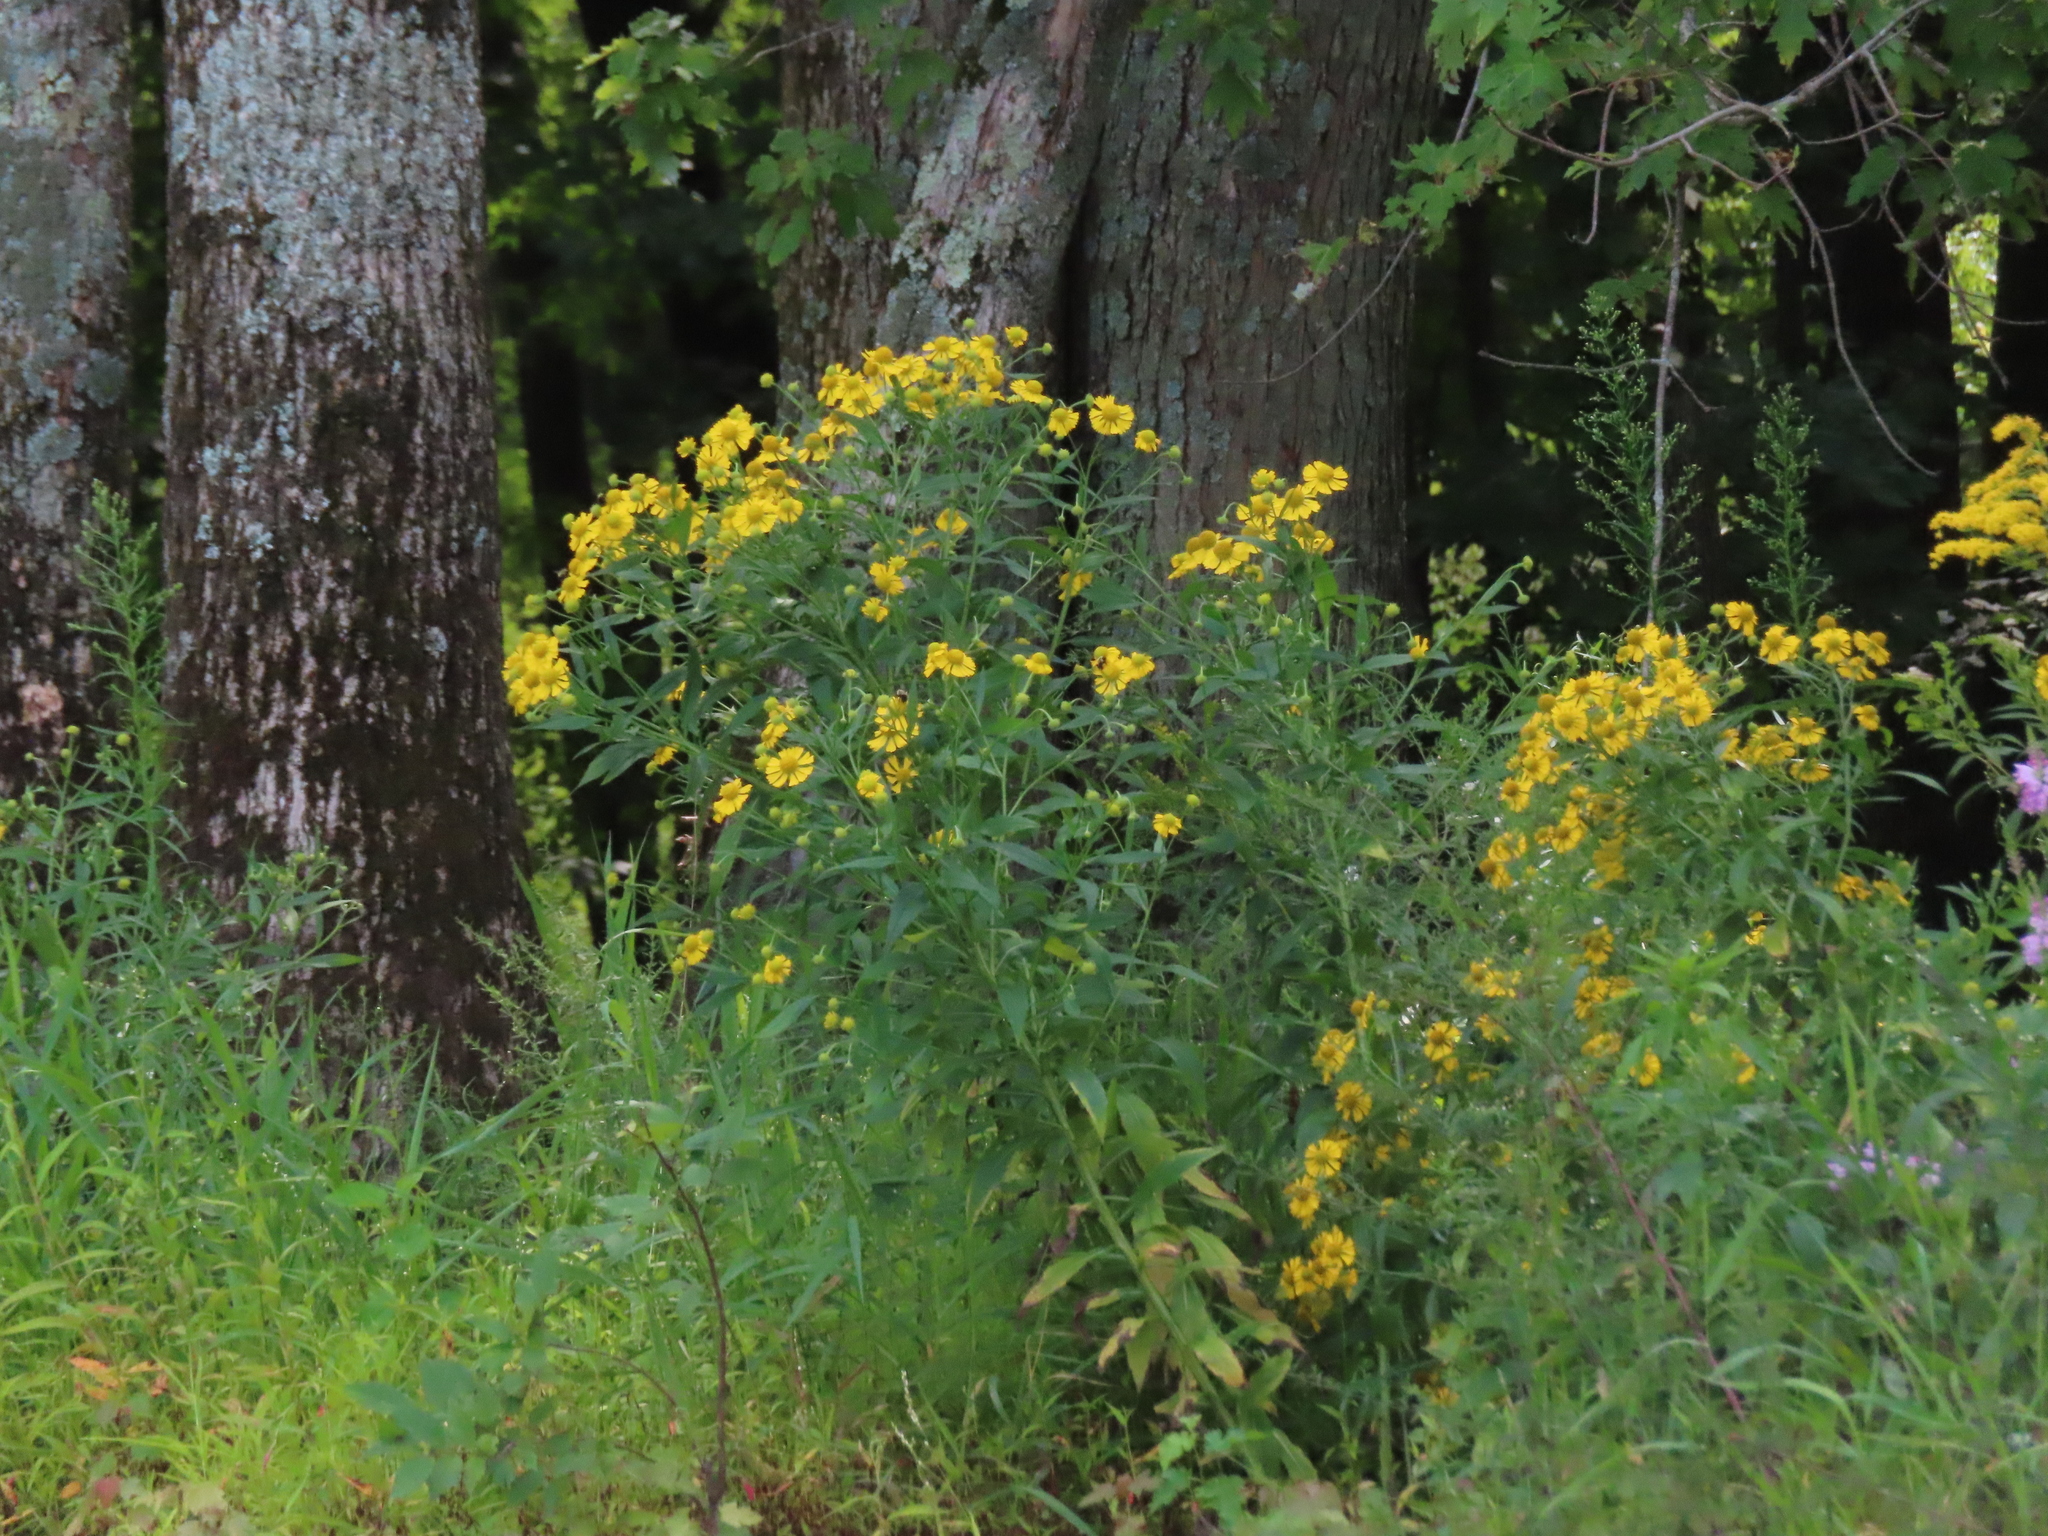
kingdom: Plantae
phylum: Tracheophyta
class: Magnoliopsida
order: Asterales
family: Asteraceae
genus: Helenium
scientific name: Helenium autumnale
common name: Sneezeweed
